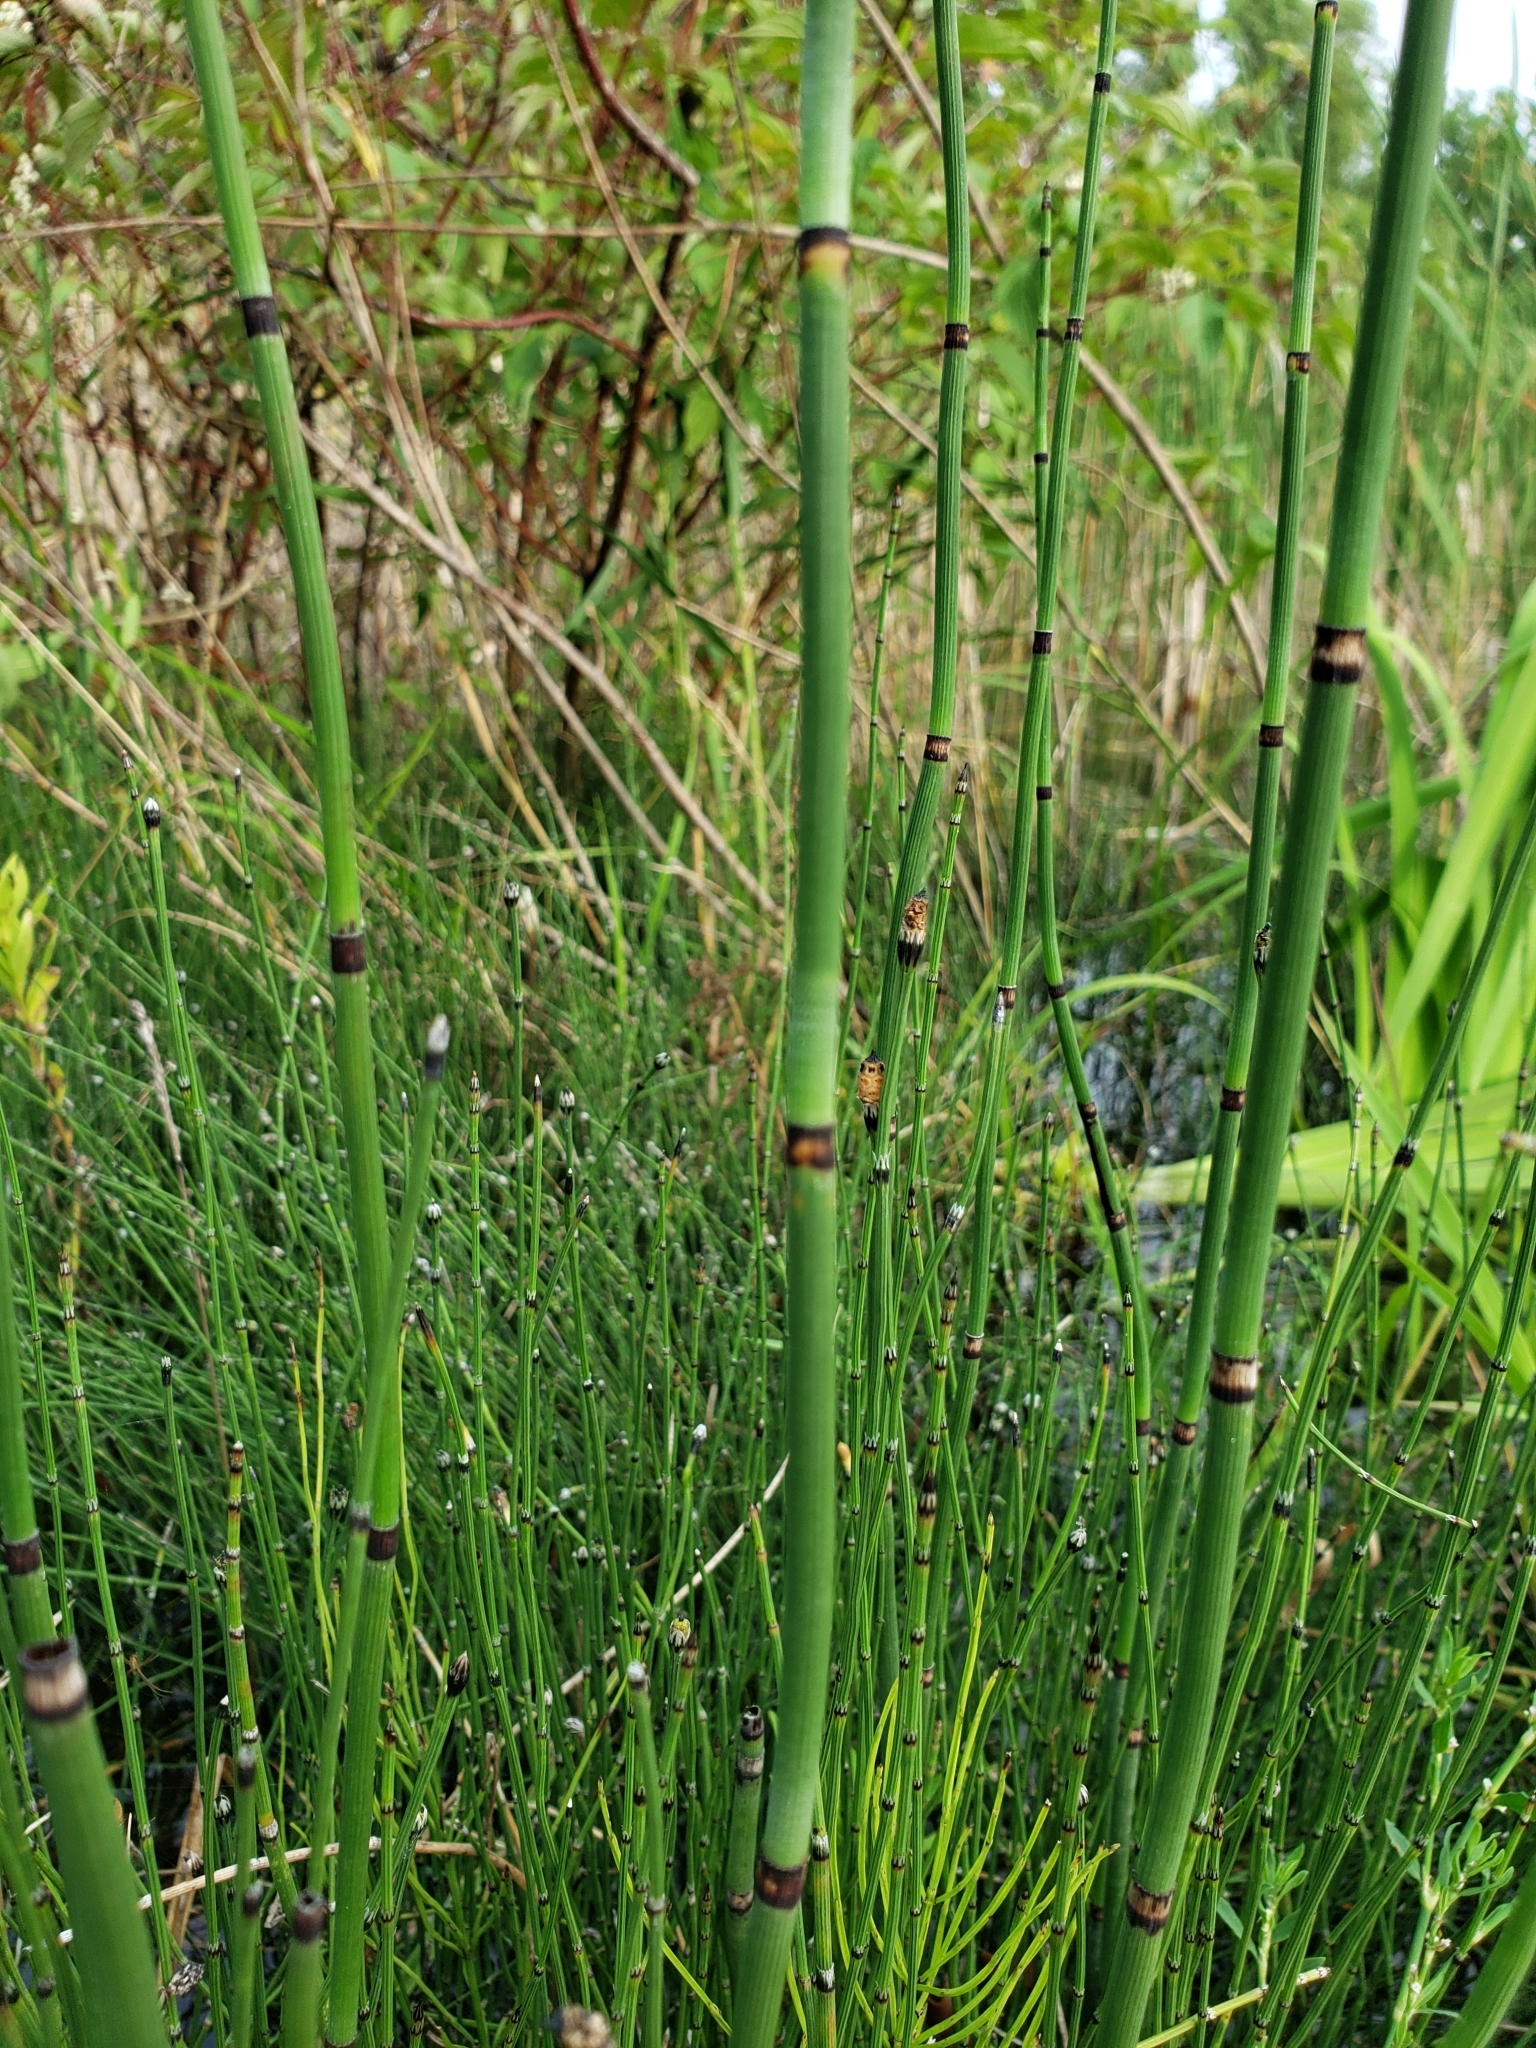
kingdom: Plantae
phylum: Tracheophyta
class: Polypodiopsida
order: Equisetales
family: Equisetaceae
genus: Equisetum
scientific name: Equisetum praealtum
